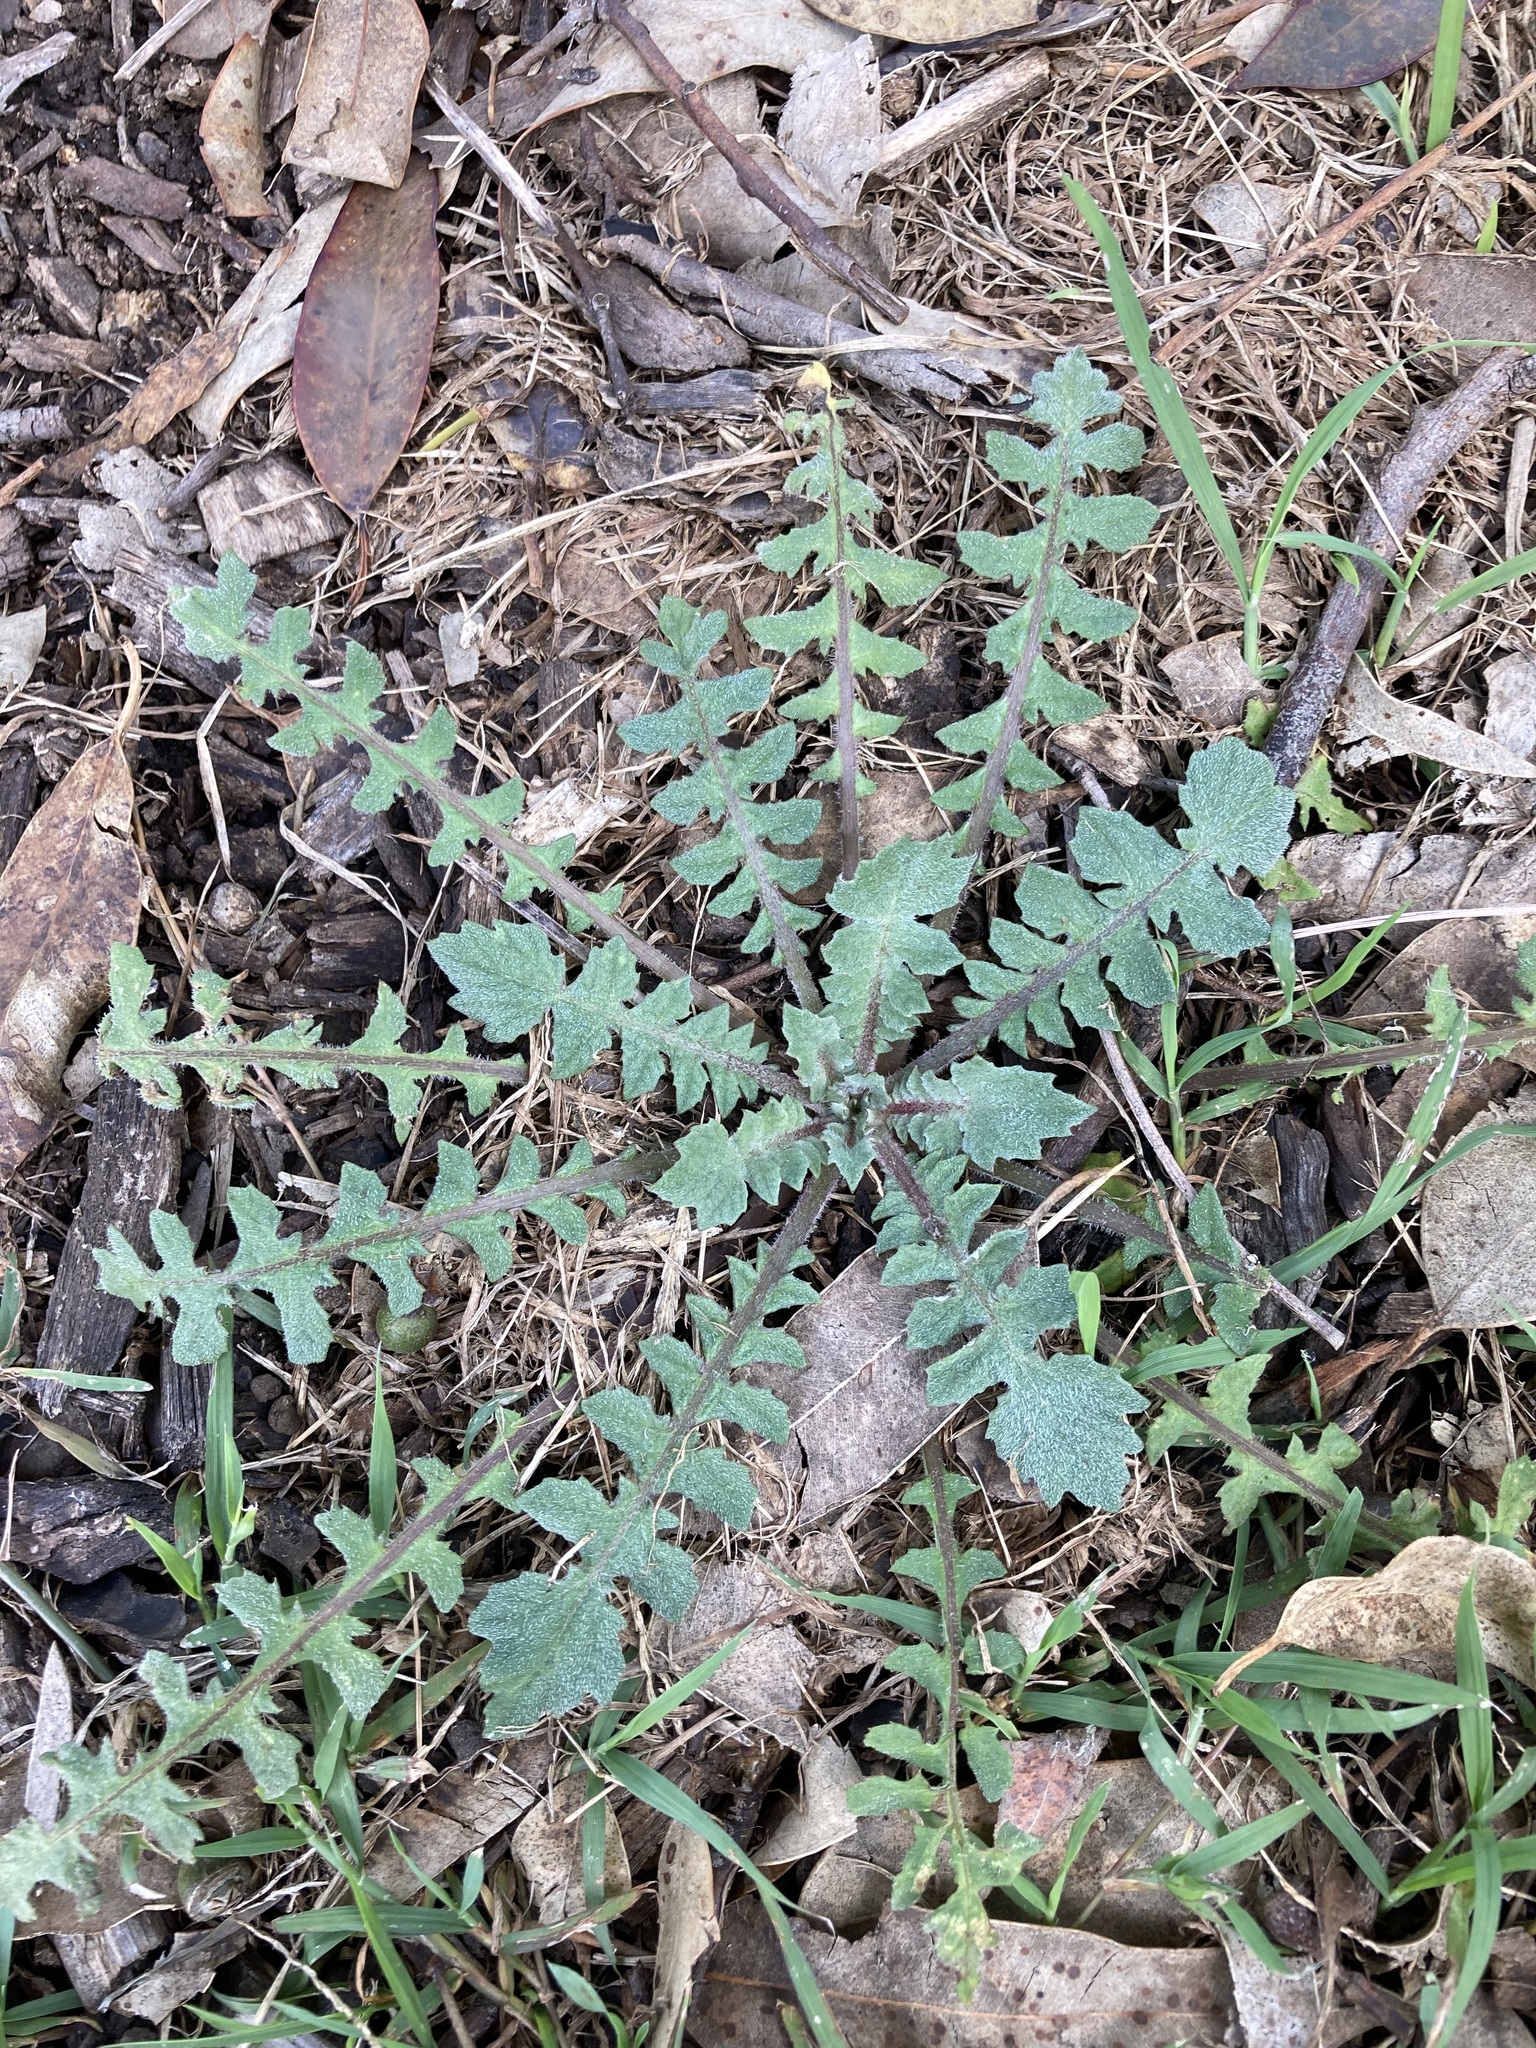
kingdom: Plantae
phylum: Tracheophyta
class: Magnoliopsida
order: Asterales
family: Asteraceae
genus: Arctotheca
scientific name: Arctotheca calendula
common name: Capeweed
